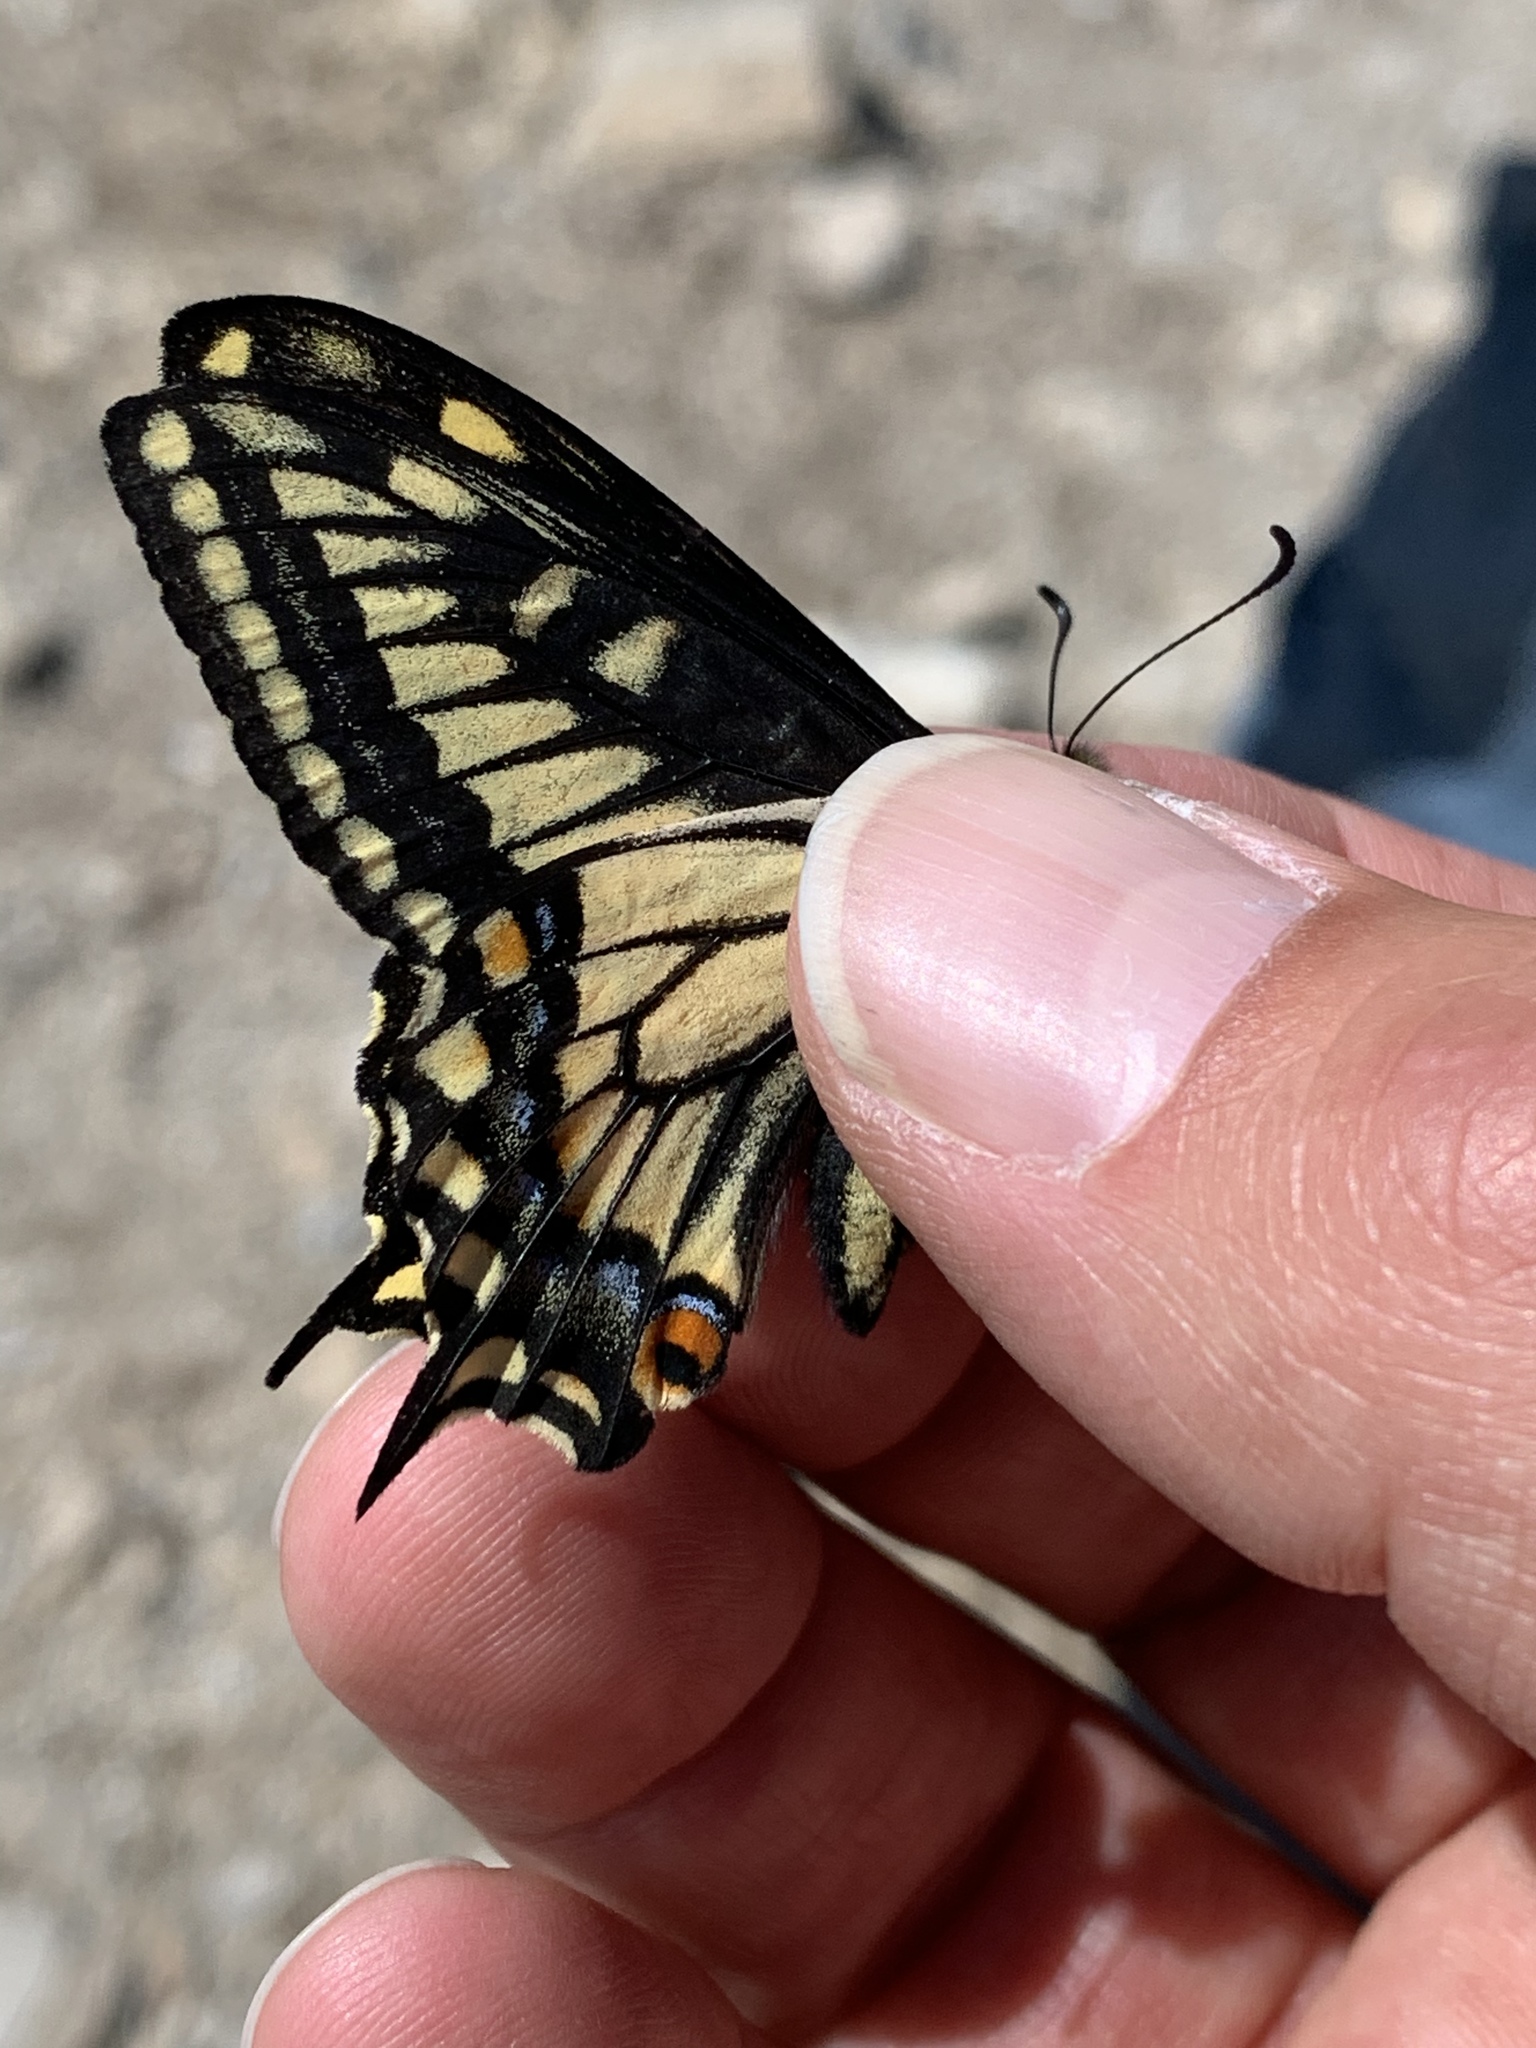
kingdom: Animalia
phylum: Arthropoda
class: Insecta
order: Lepidoptera
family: Papilionidae
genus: Papilio
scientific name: Papilio zelicaon
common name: Anise swallowtail
